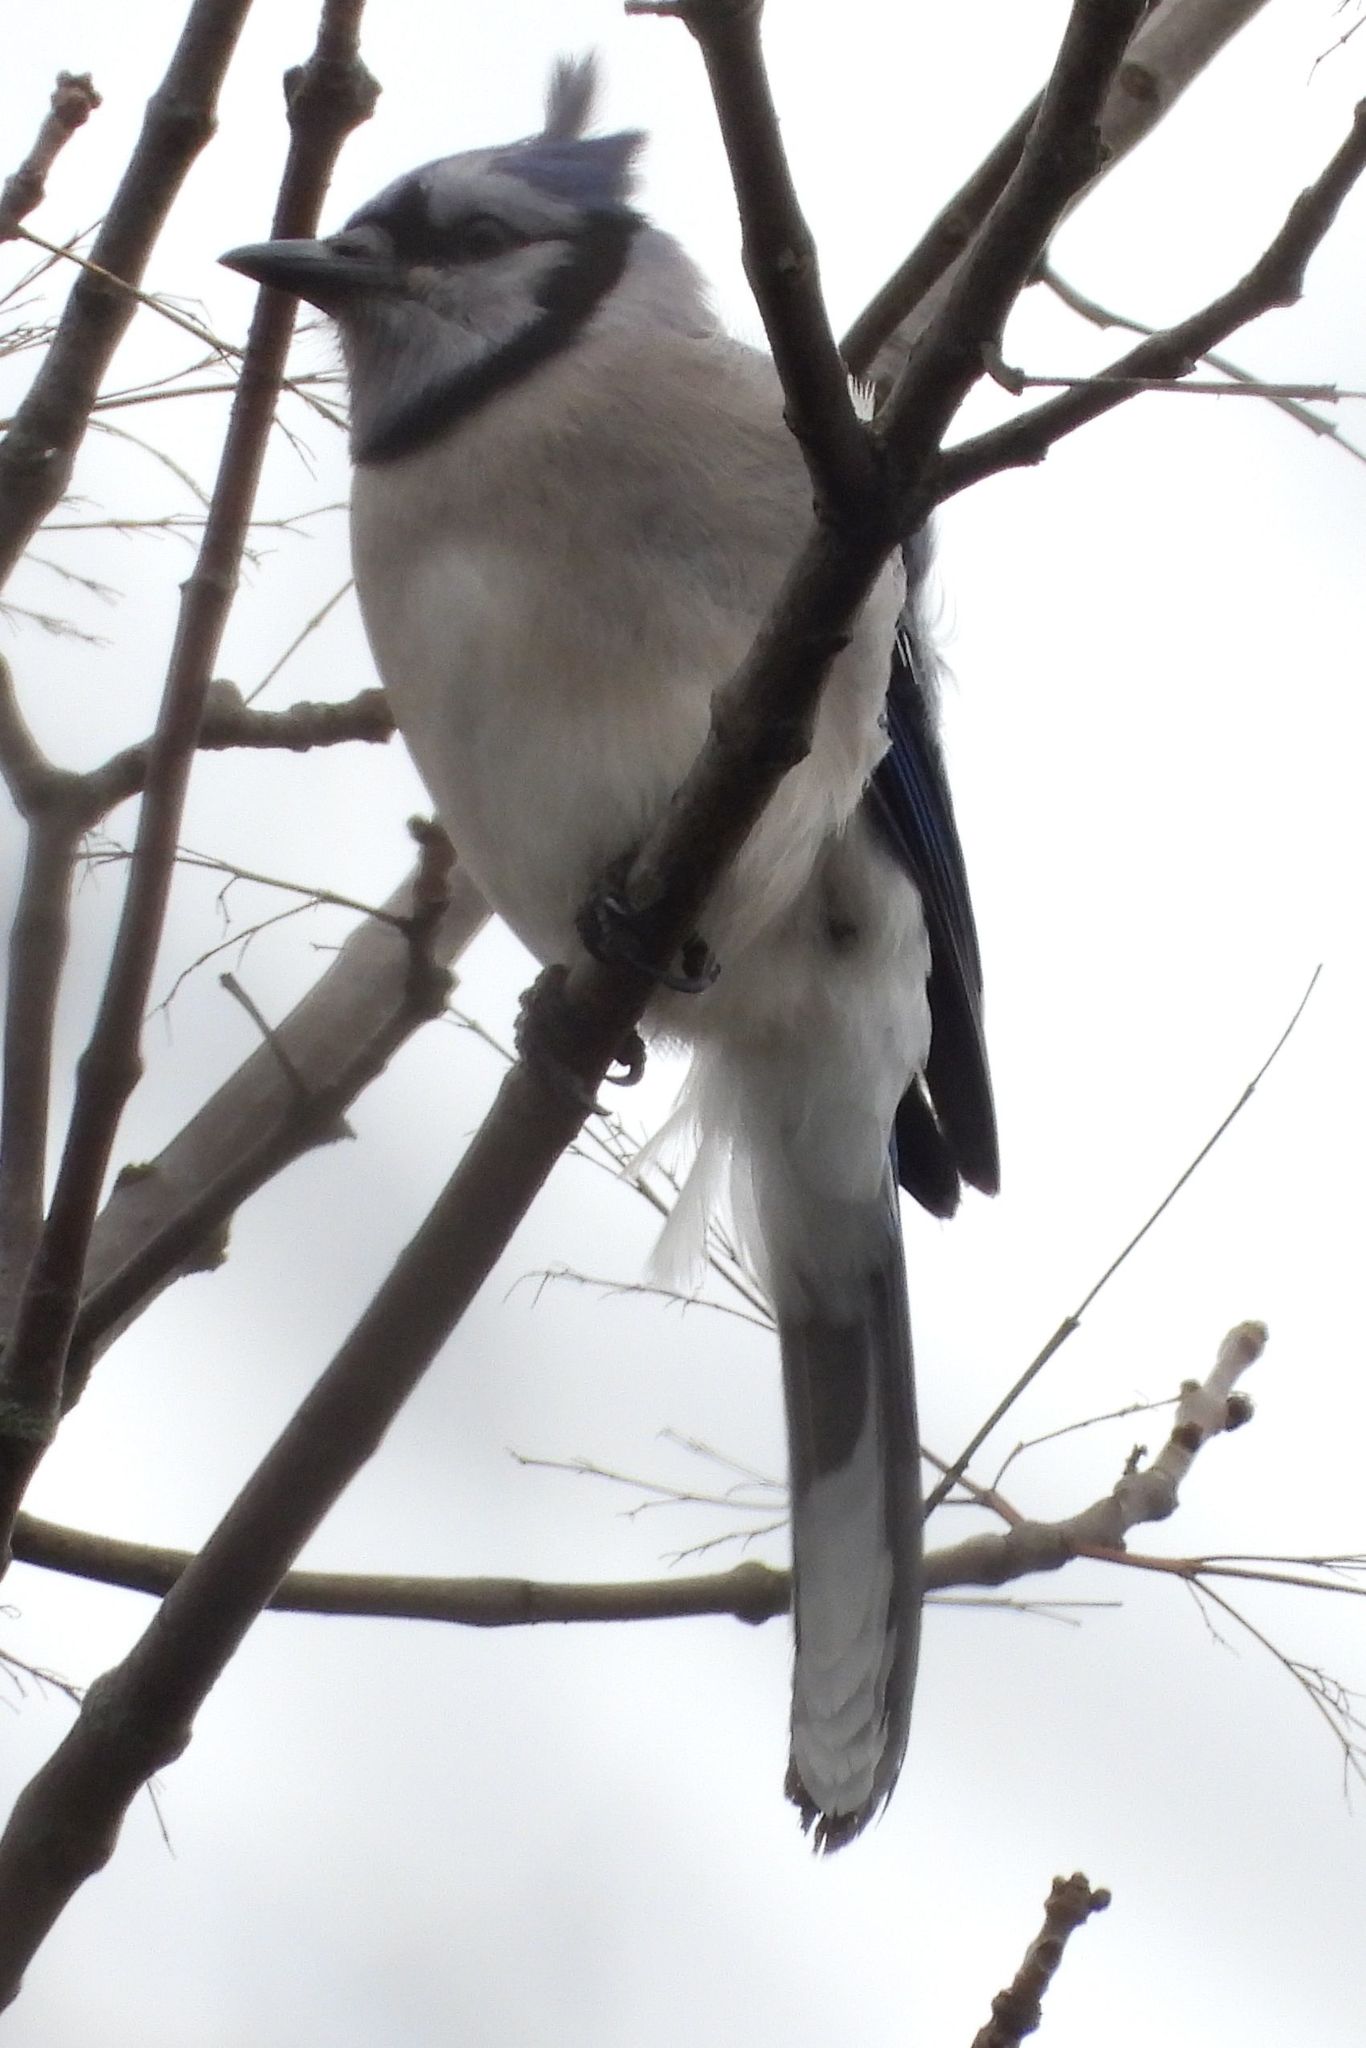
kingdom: Animalia
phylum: Chordata
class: Aves
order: Passeriformes
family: Corvidae
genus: Cyanocitta
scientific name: Cyanocitta cristata
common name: Blue jay
